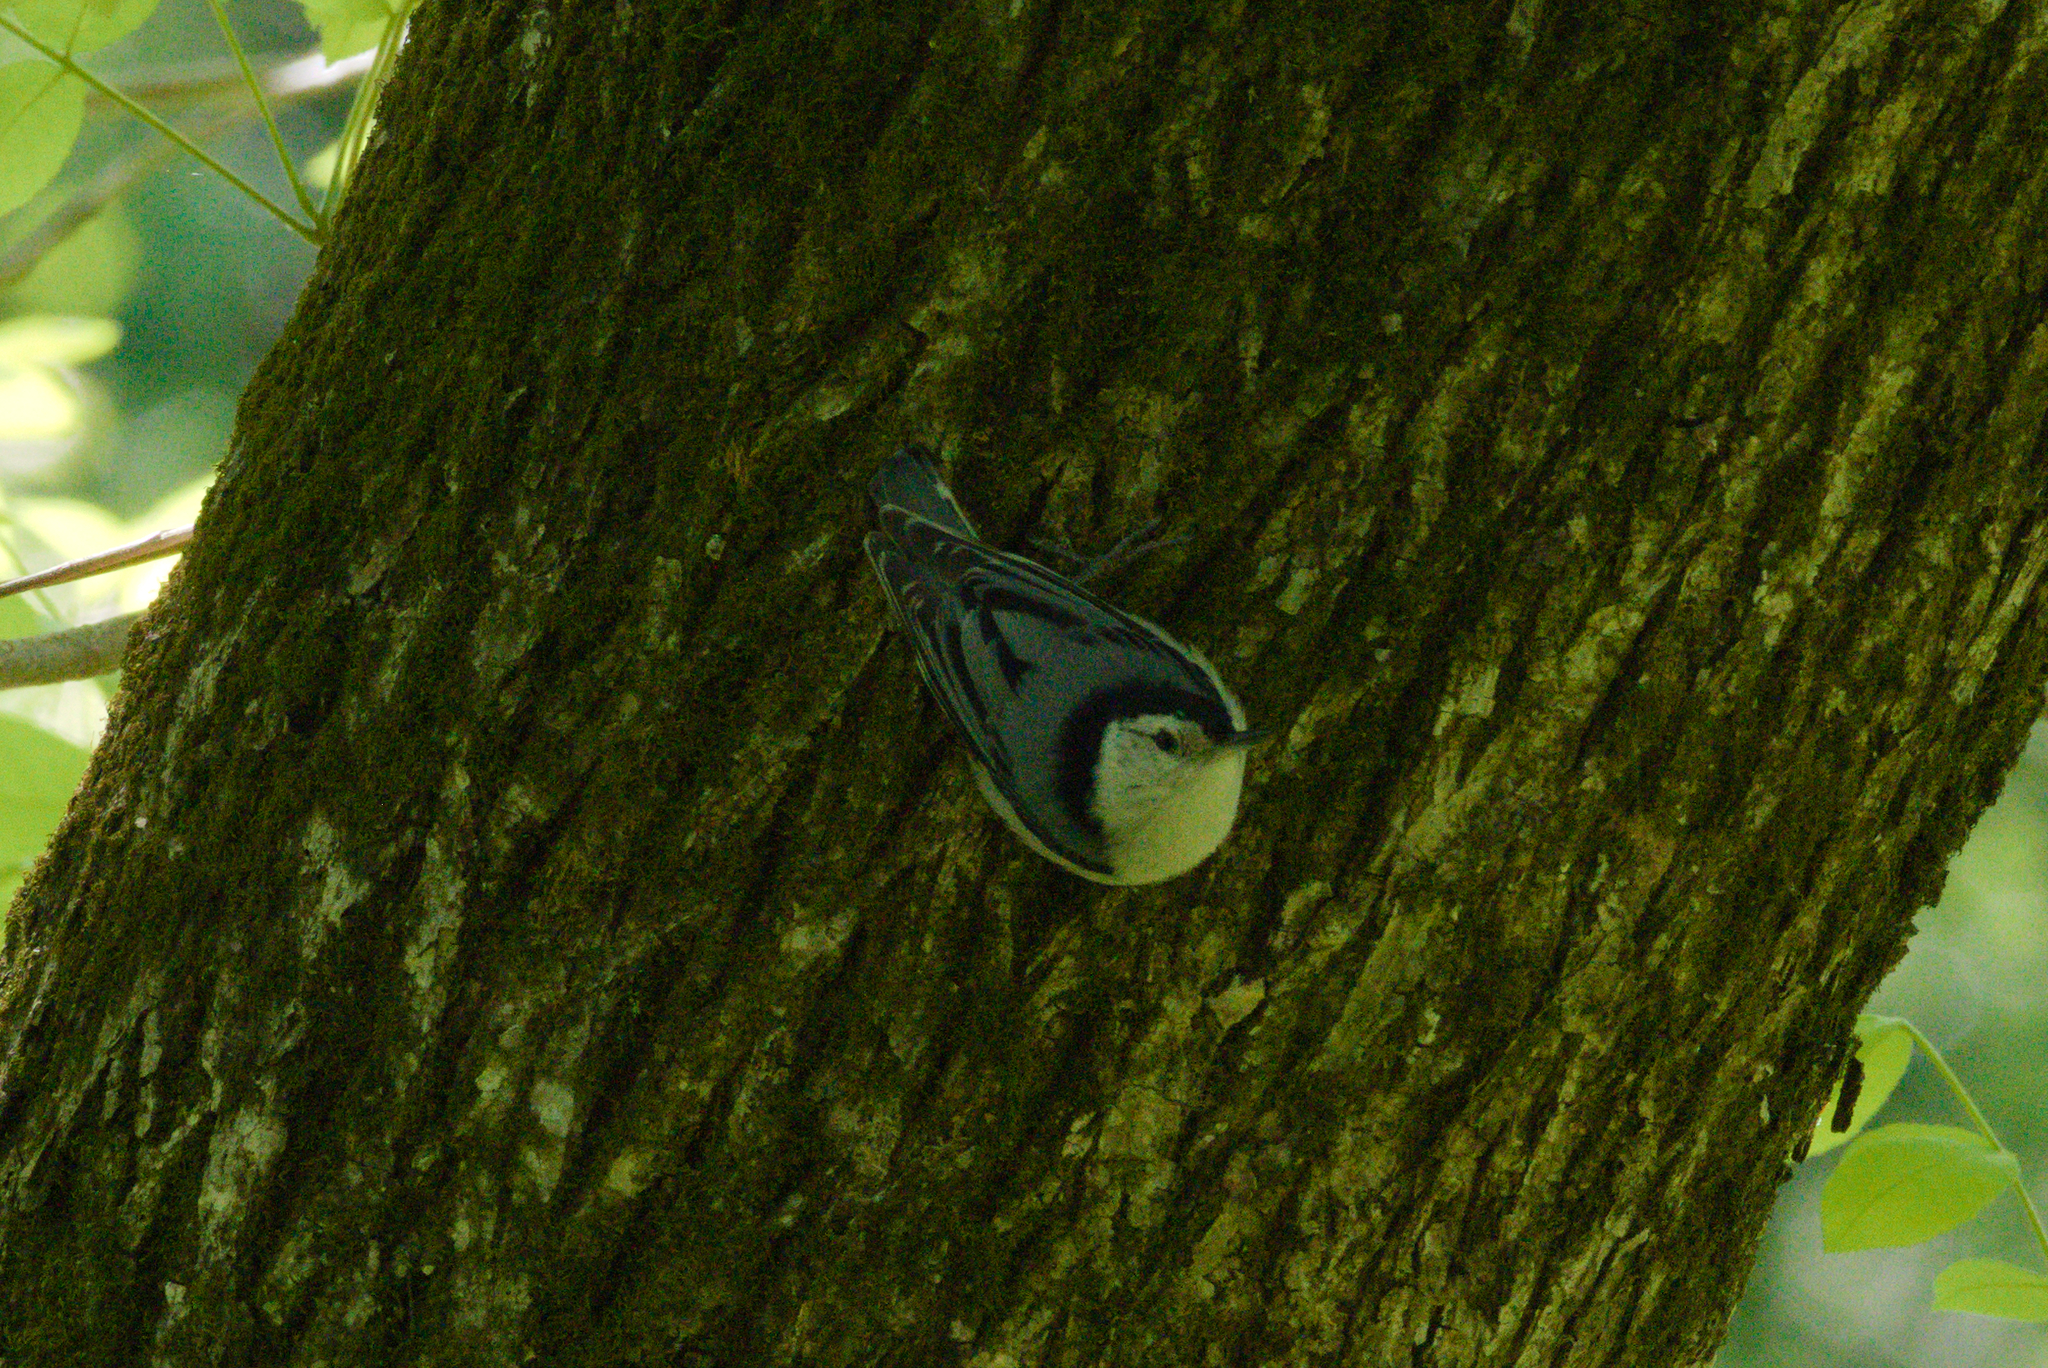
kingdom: Animalia
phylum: Chordata
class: Aves
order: Passeriformes
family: Sittidae
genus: Sitta
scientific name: Sitta carolinensis
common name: White-breasted nuthatch
